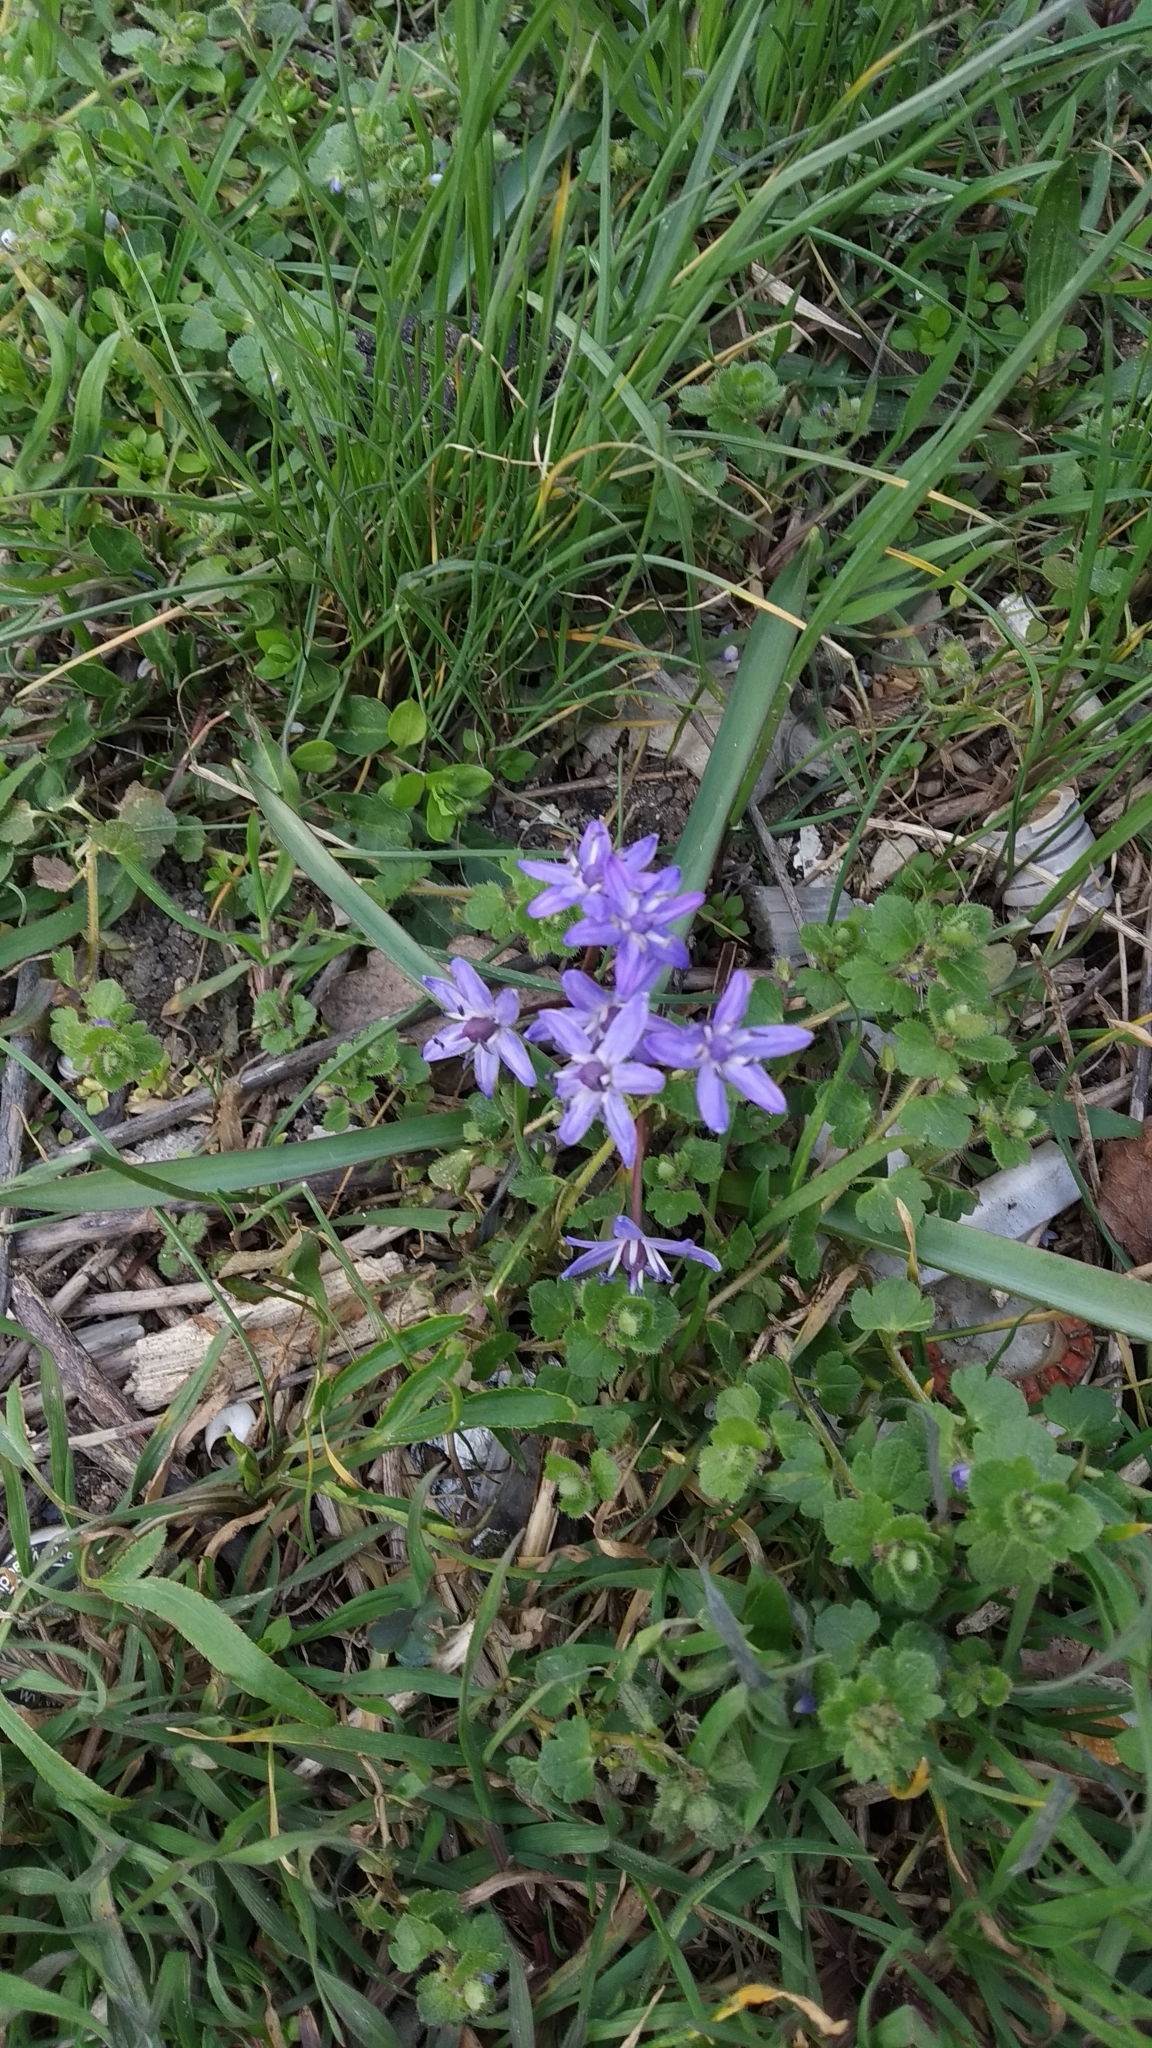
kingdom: Plantae
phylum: Tracheophyta
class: Liliopsida
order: Asparagales
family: Asparagaceae
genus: Scilla
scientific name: Scilla bifolia
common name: Alpine squill
